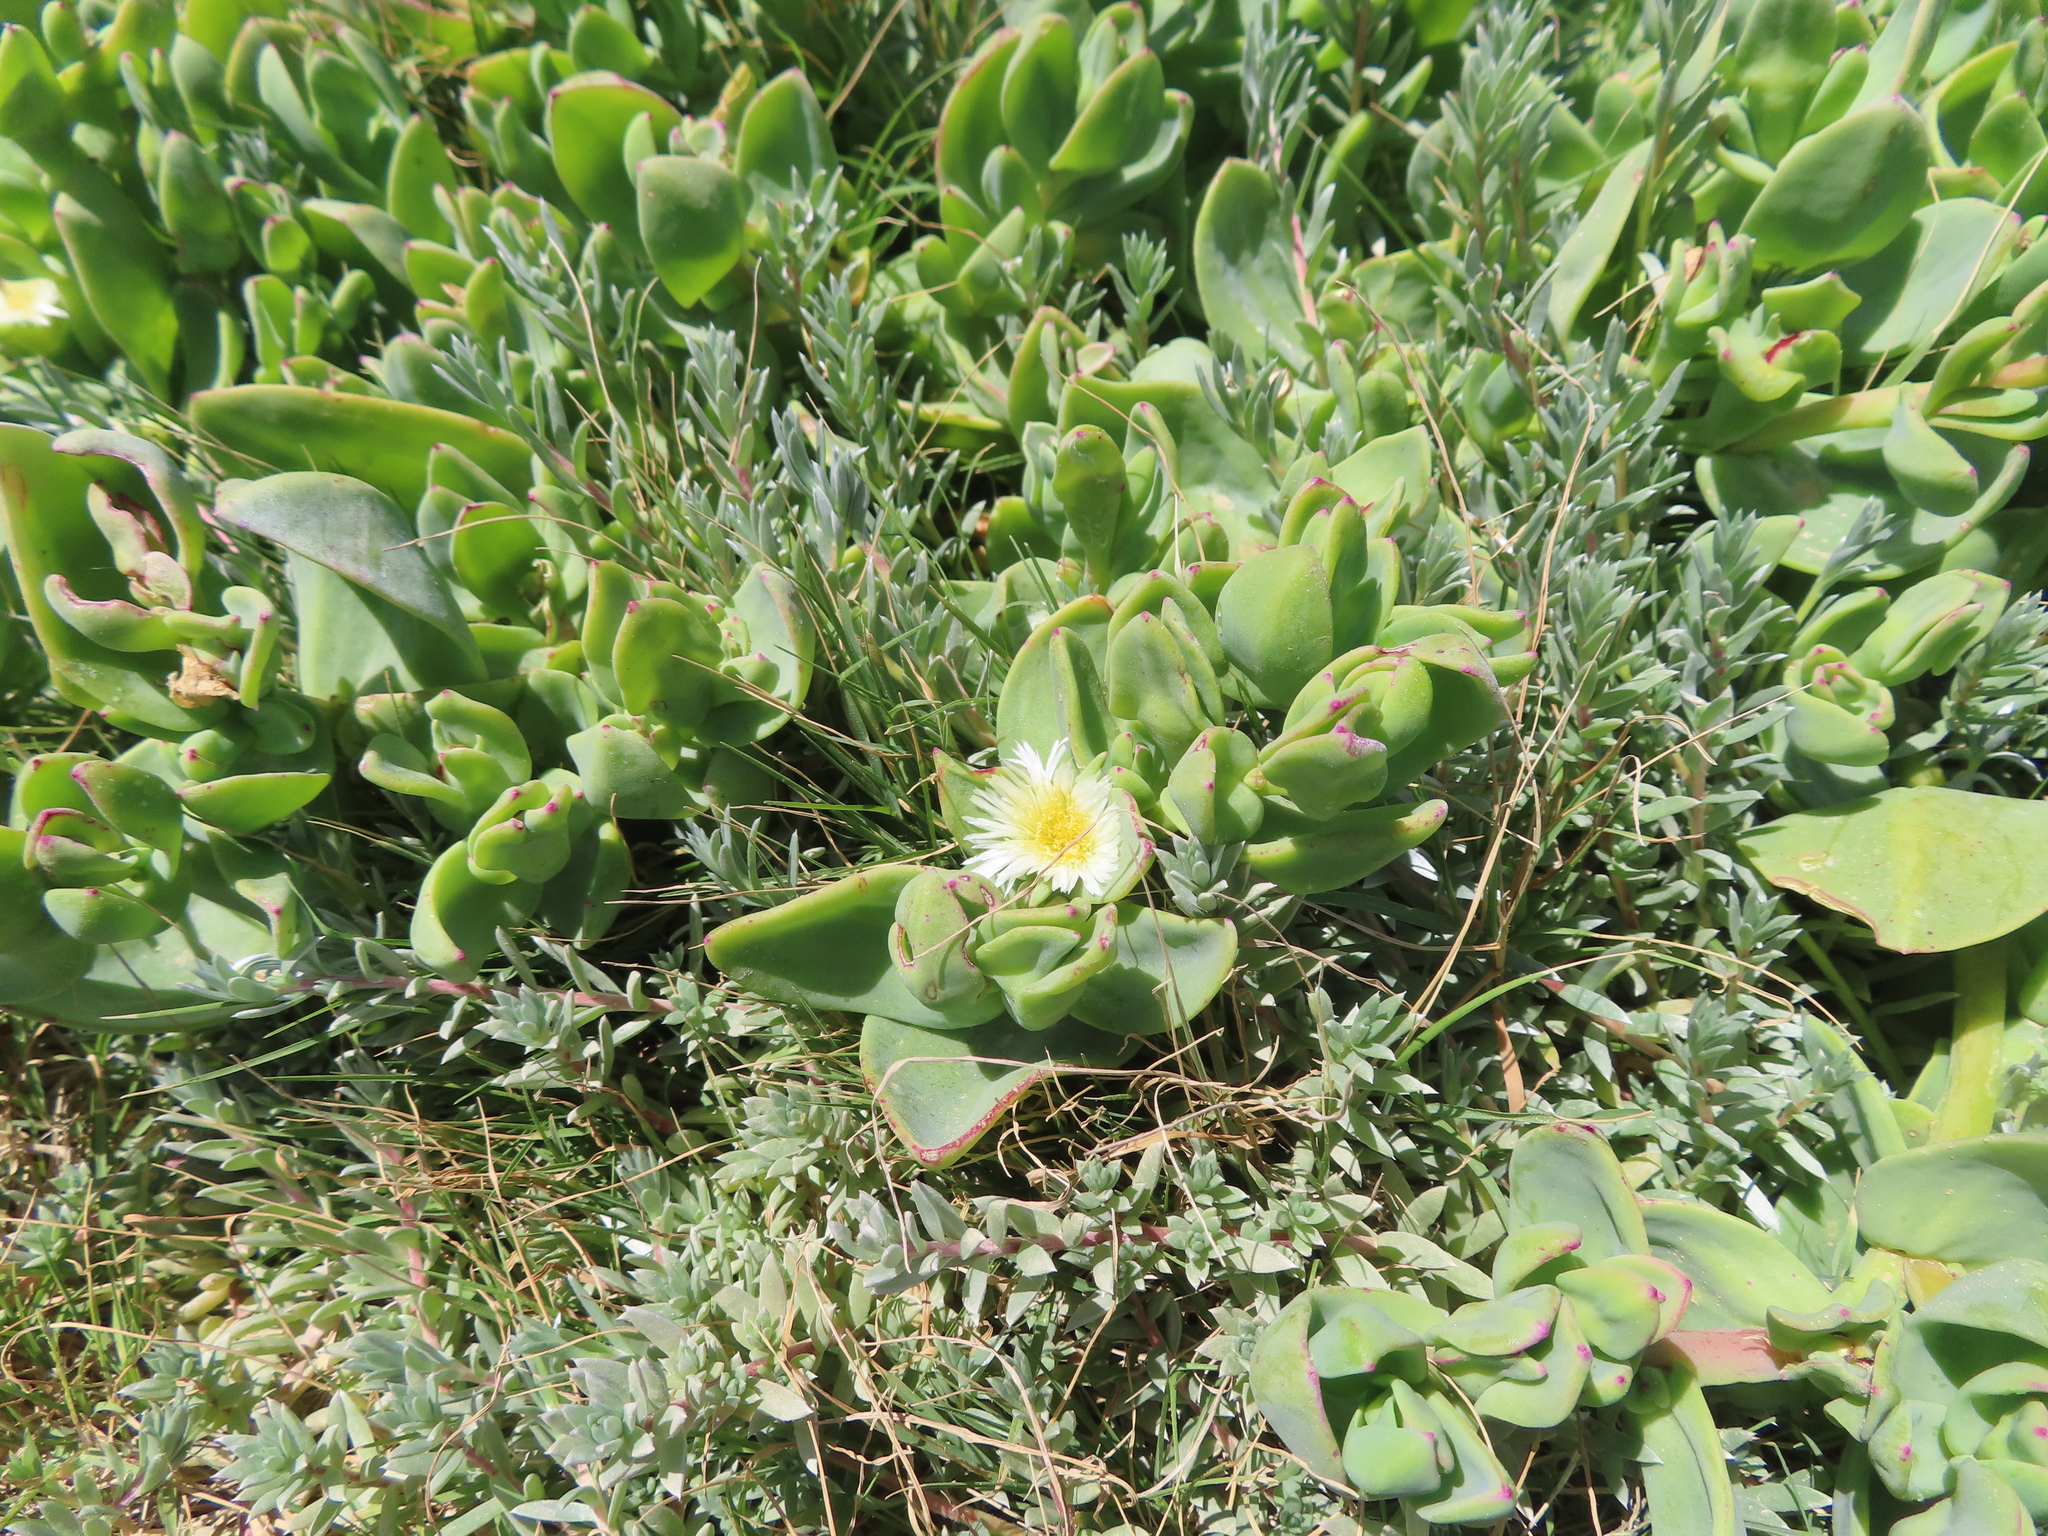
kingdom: Plantae
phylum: Tracheophyta
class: Magnoliopsida
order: Caryophyllales
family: Aizoaceae
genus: Mesembryanthemum
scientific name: Mesembryanthemum vanrensburgii
